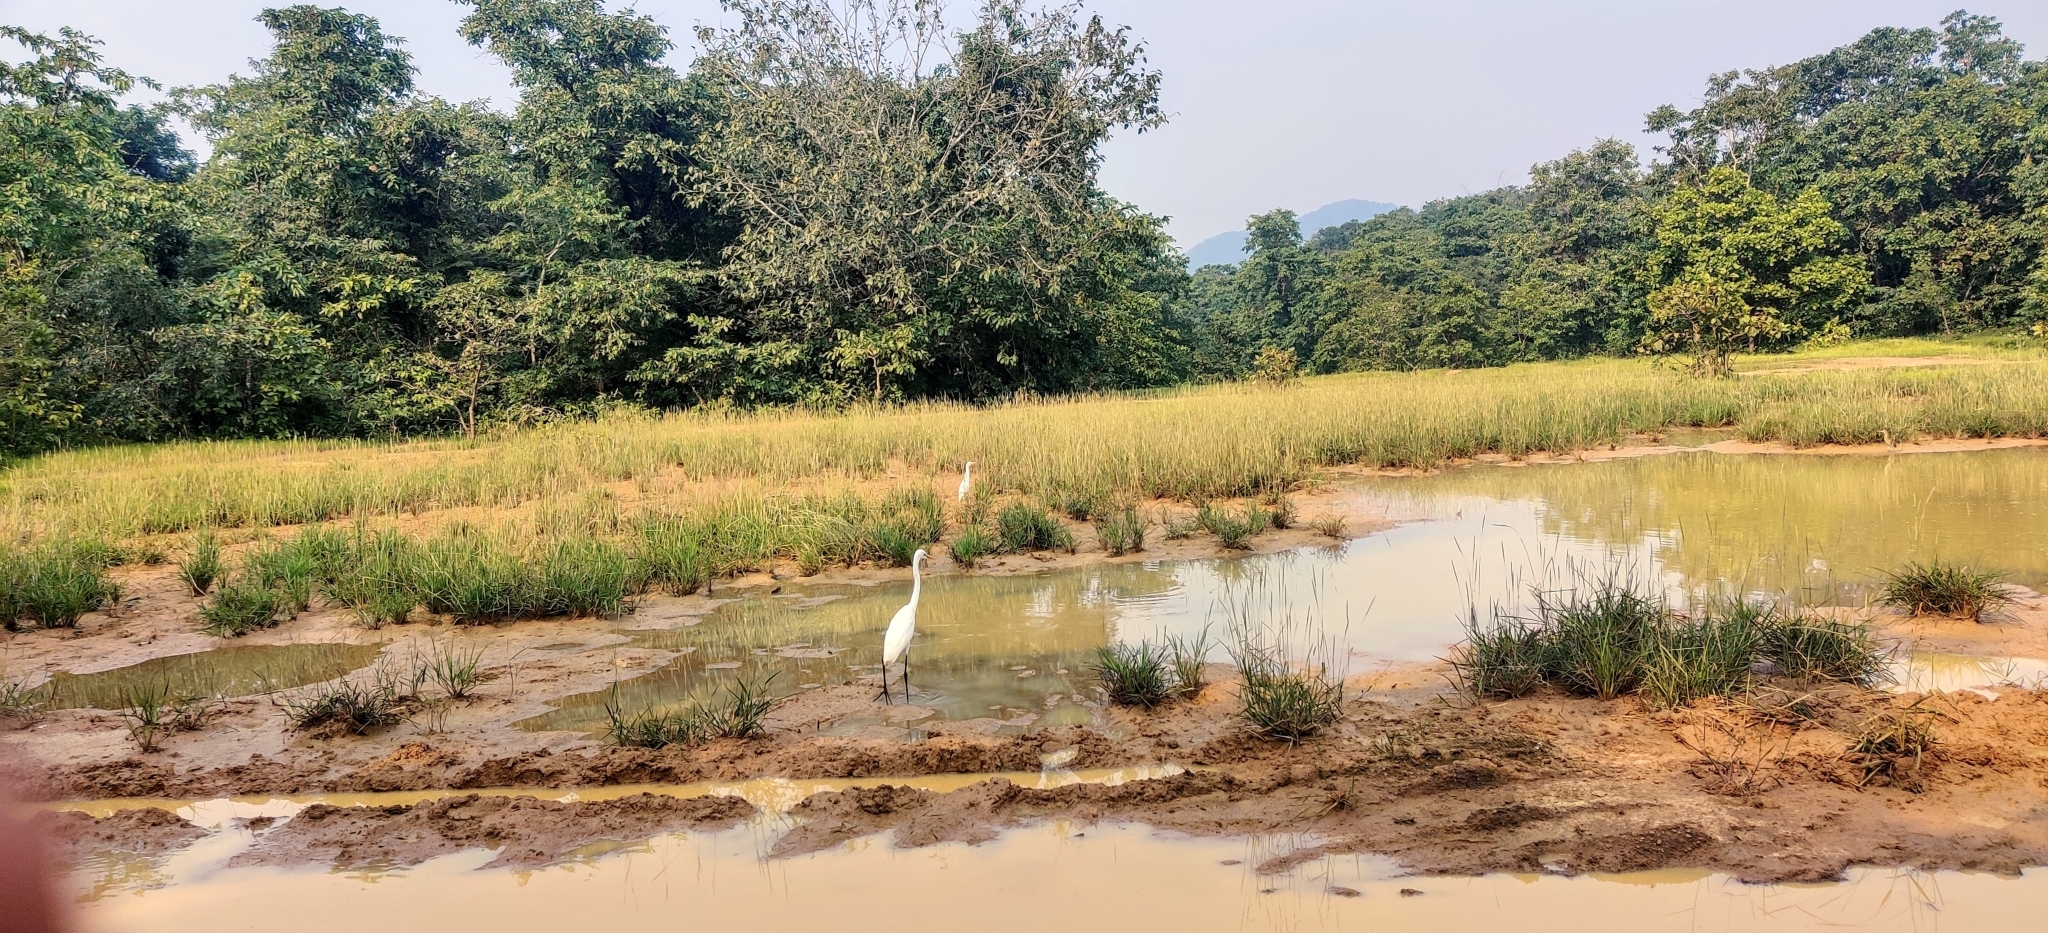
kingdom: Animalia
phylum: Chordata
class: Aves
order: Pelecaniformes
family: Ardeidae
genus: Egretta
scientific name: Egretta intermedia
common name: Intermediate egret
